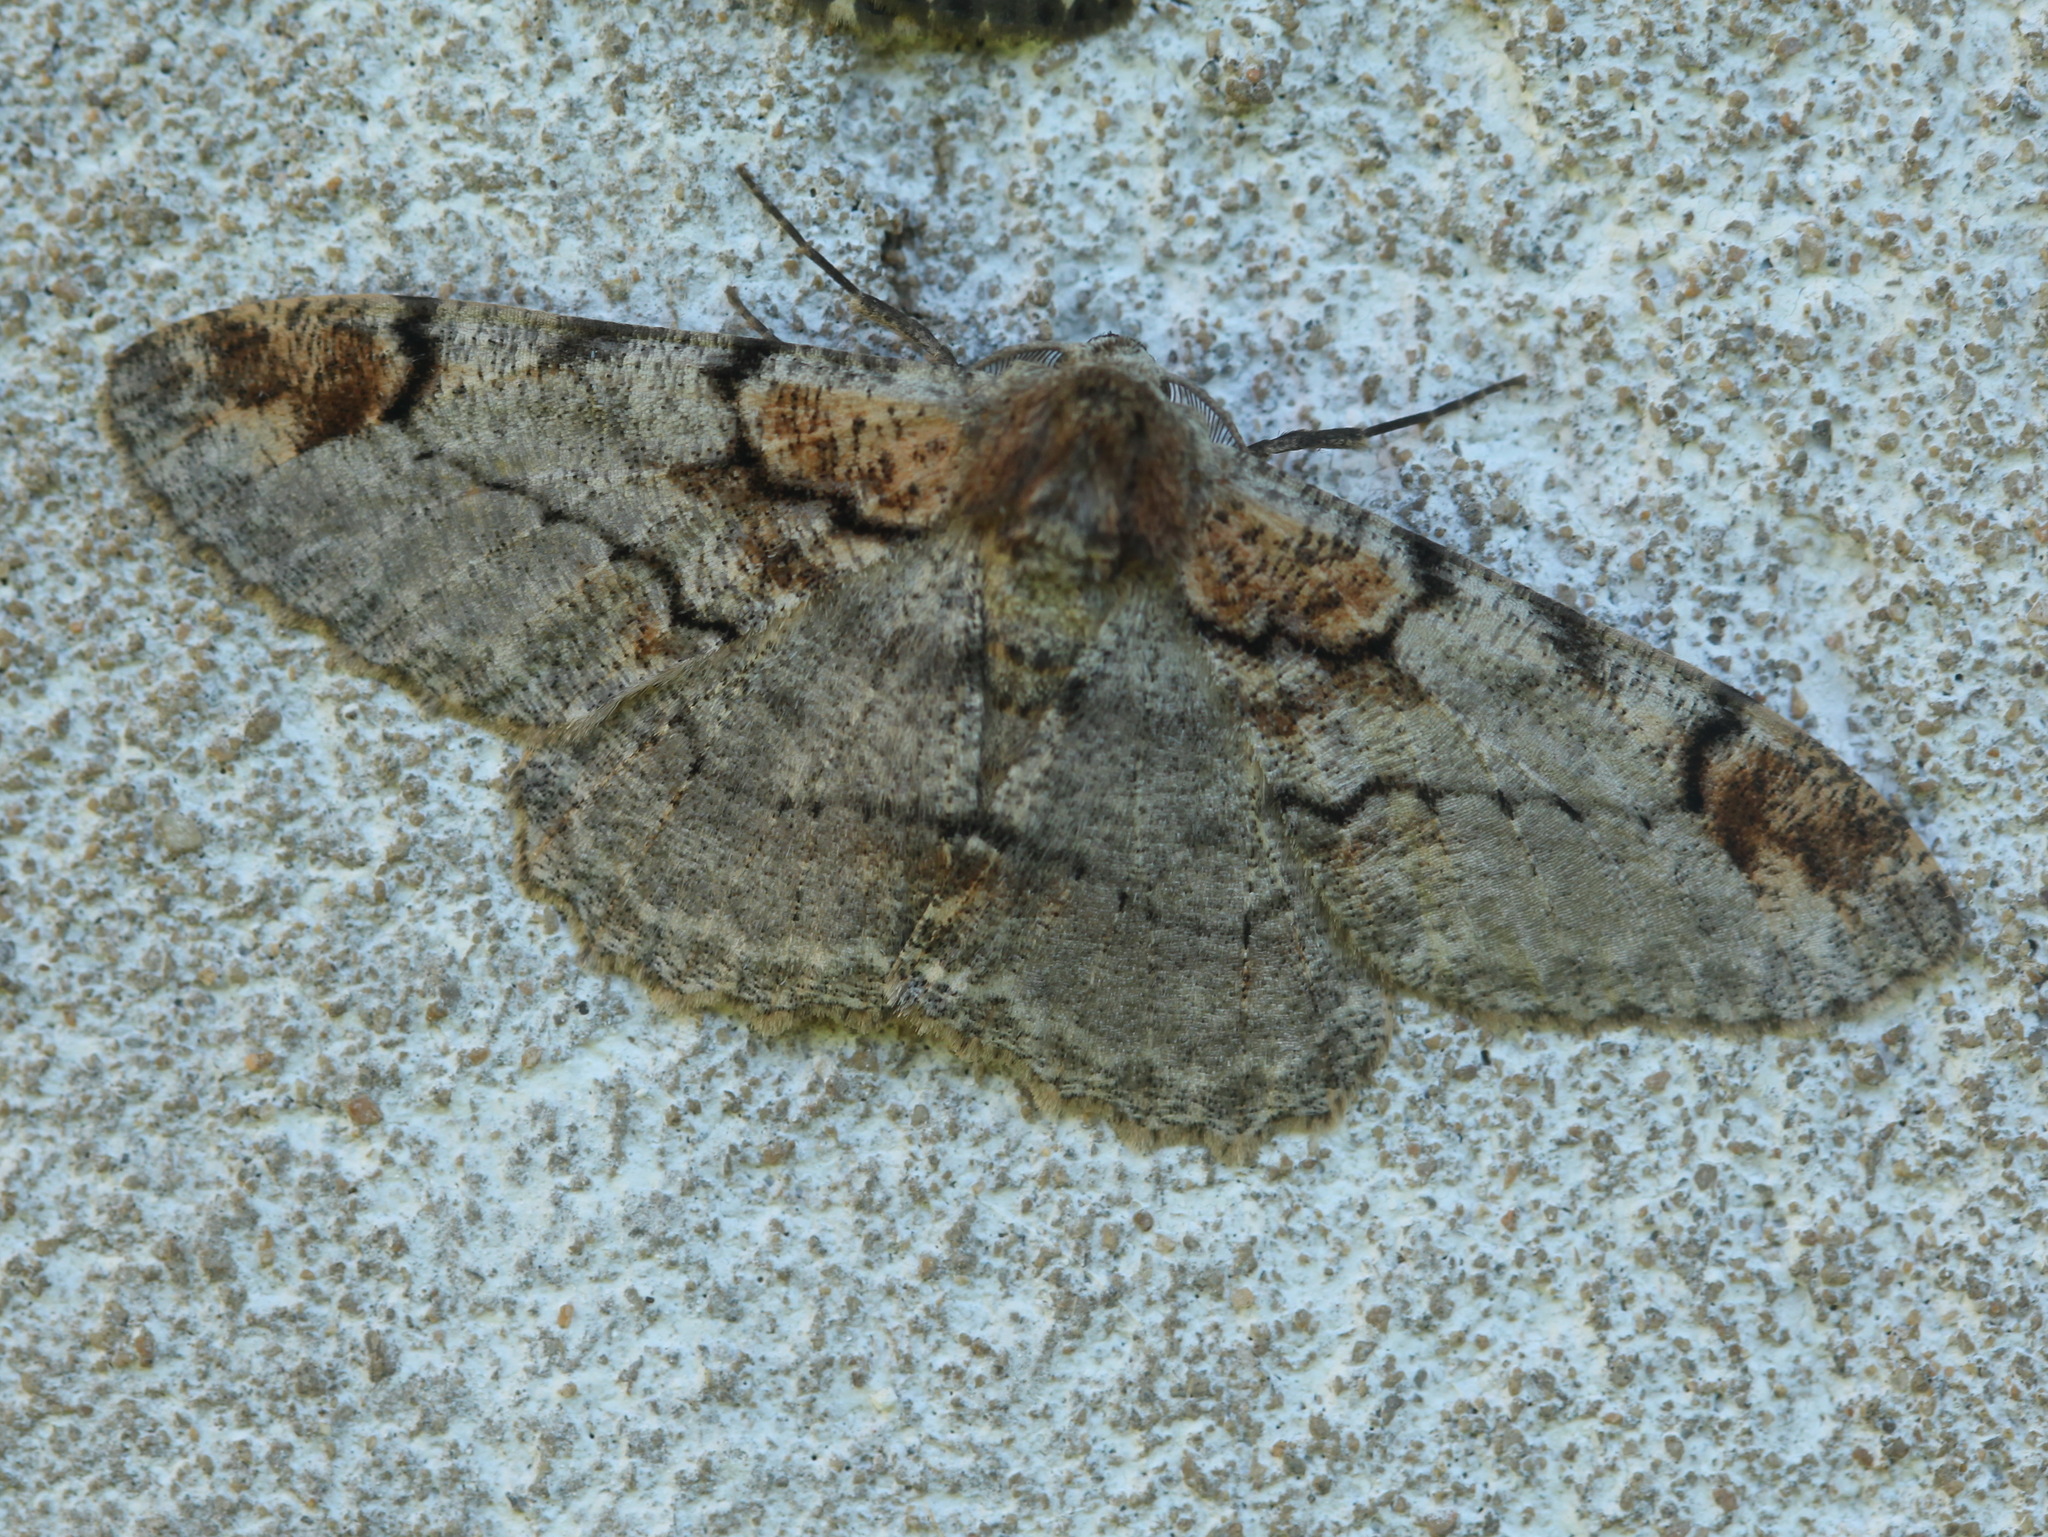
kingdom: Animalia
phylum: Arthropoda
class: Insecta
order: Lepidoptera
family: Geometridae
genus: Amraica
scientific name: Amraica superans
